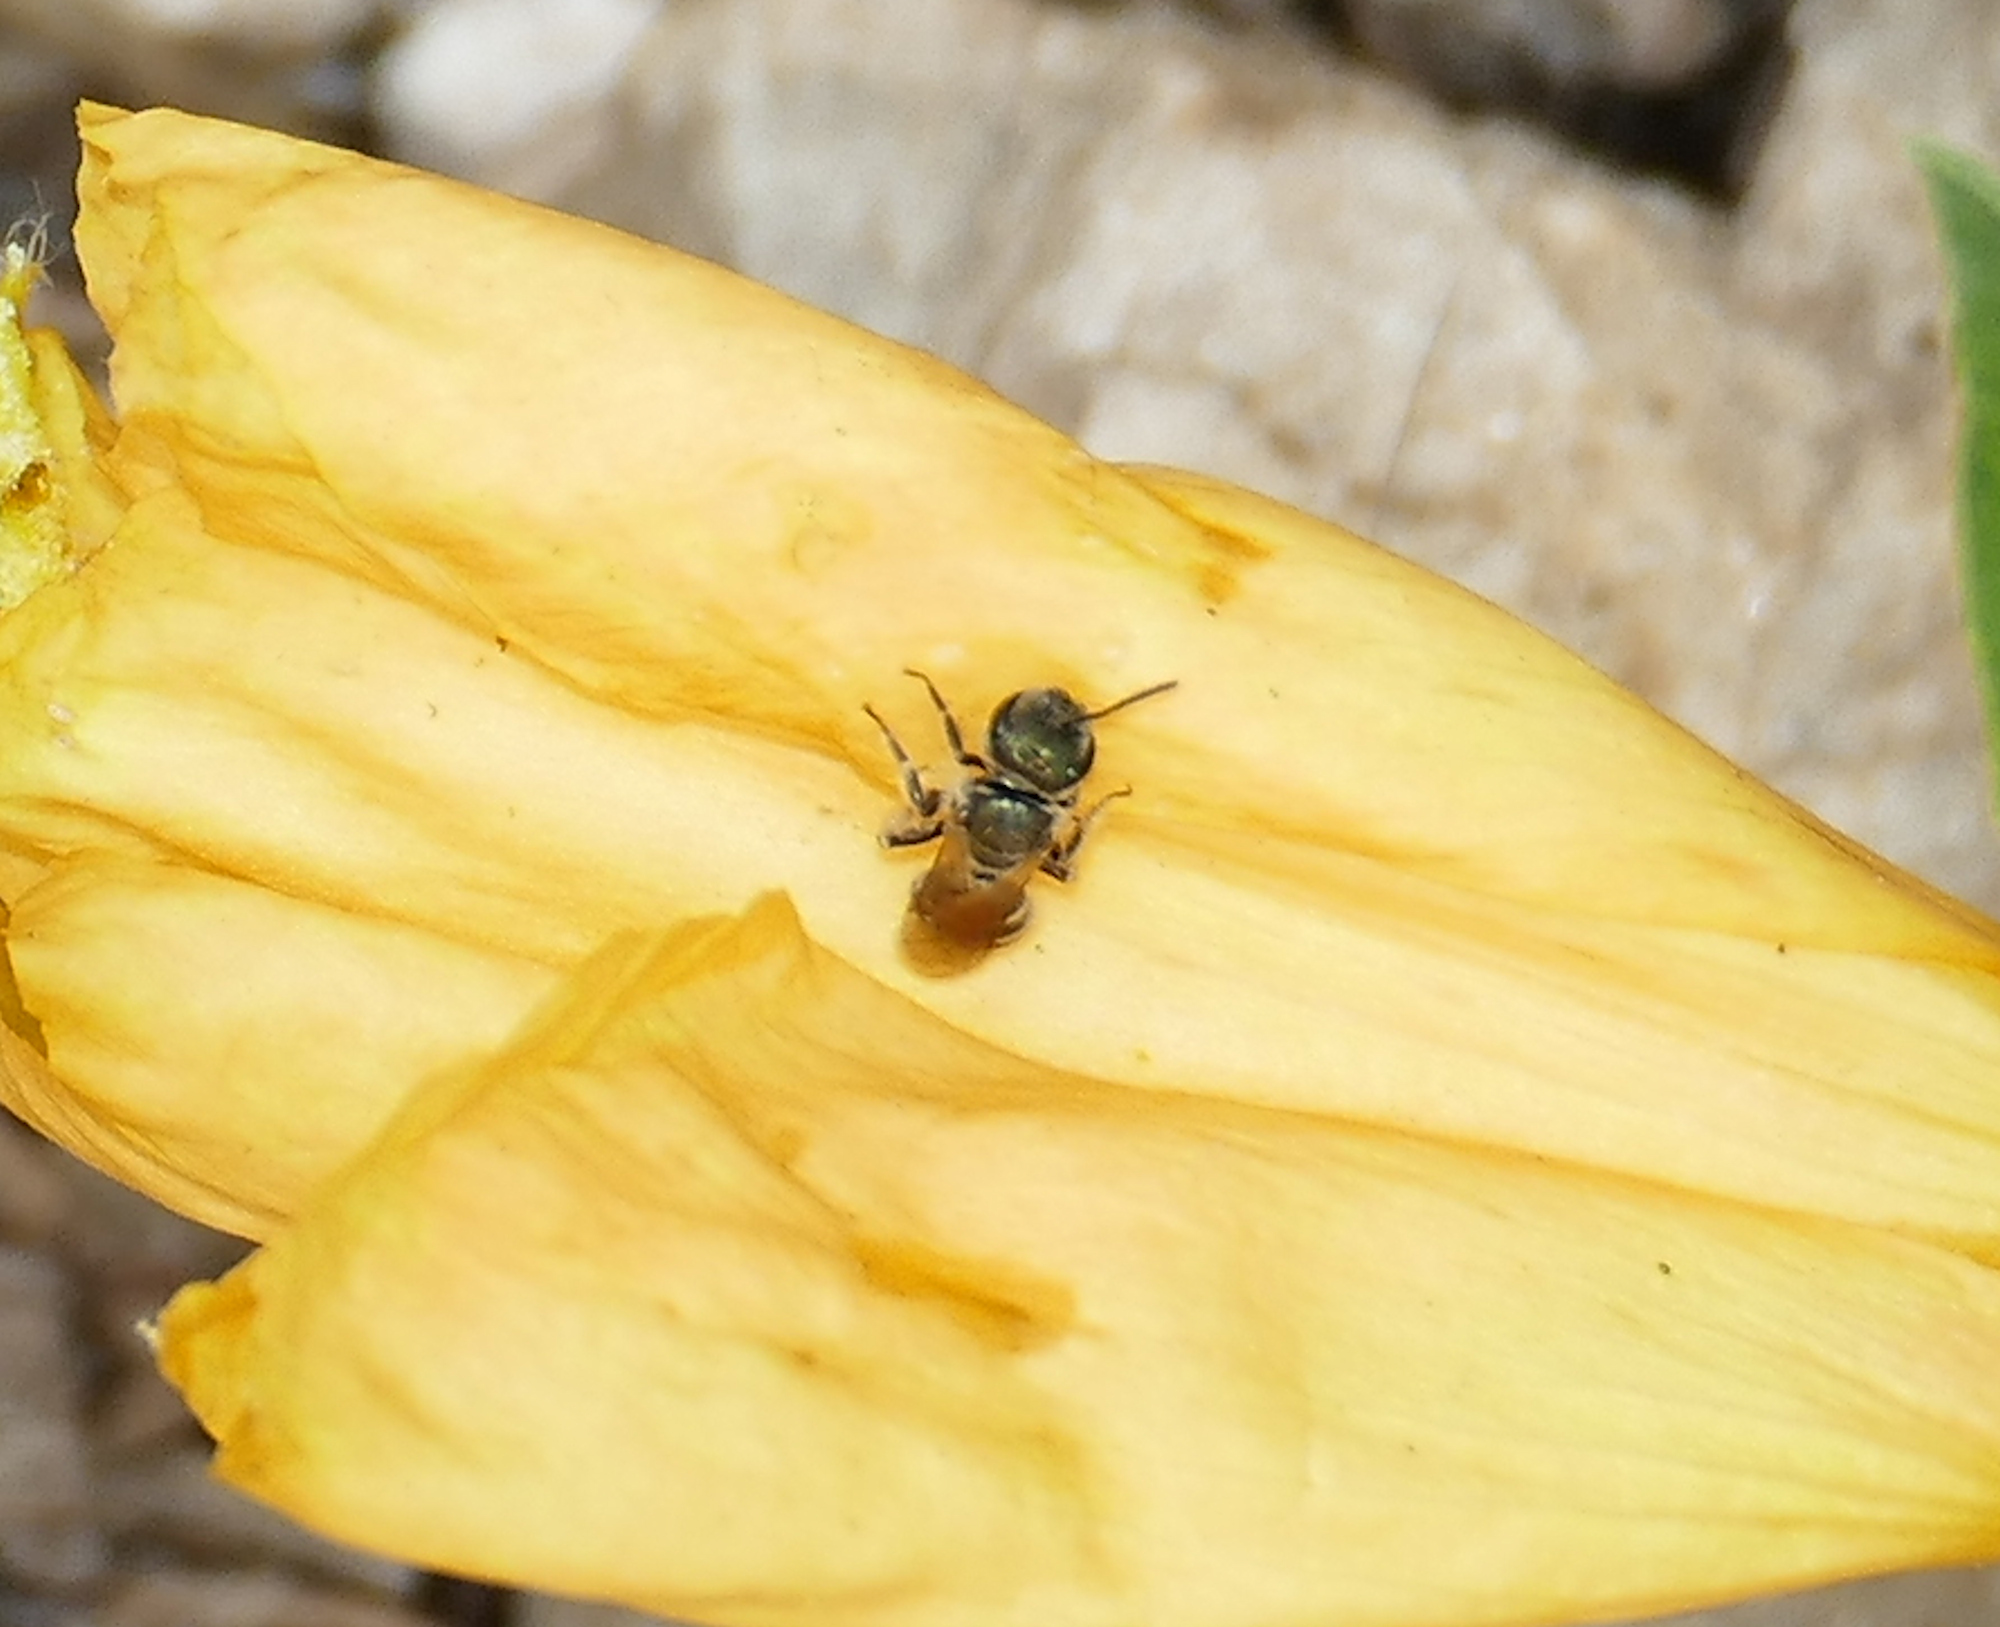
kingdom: Animalia
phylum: Arthropoda
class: Insecta
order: Hymenoptera
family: Halictidae
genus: Halictus
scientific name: Halictus tripartitus
